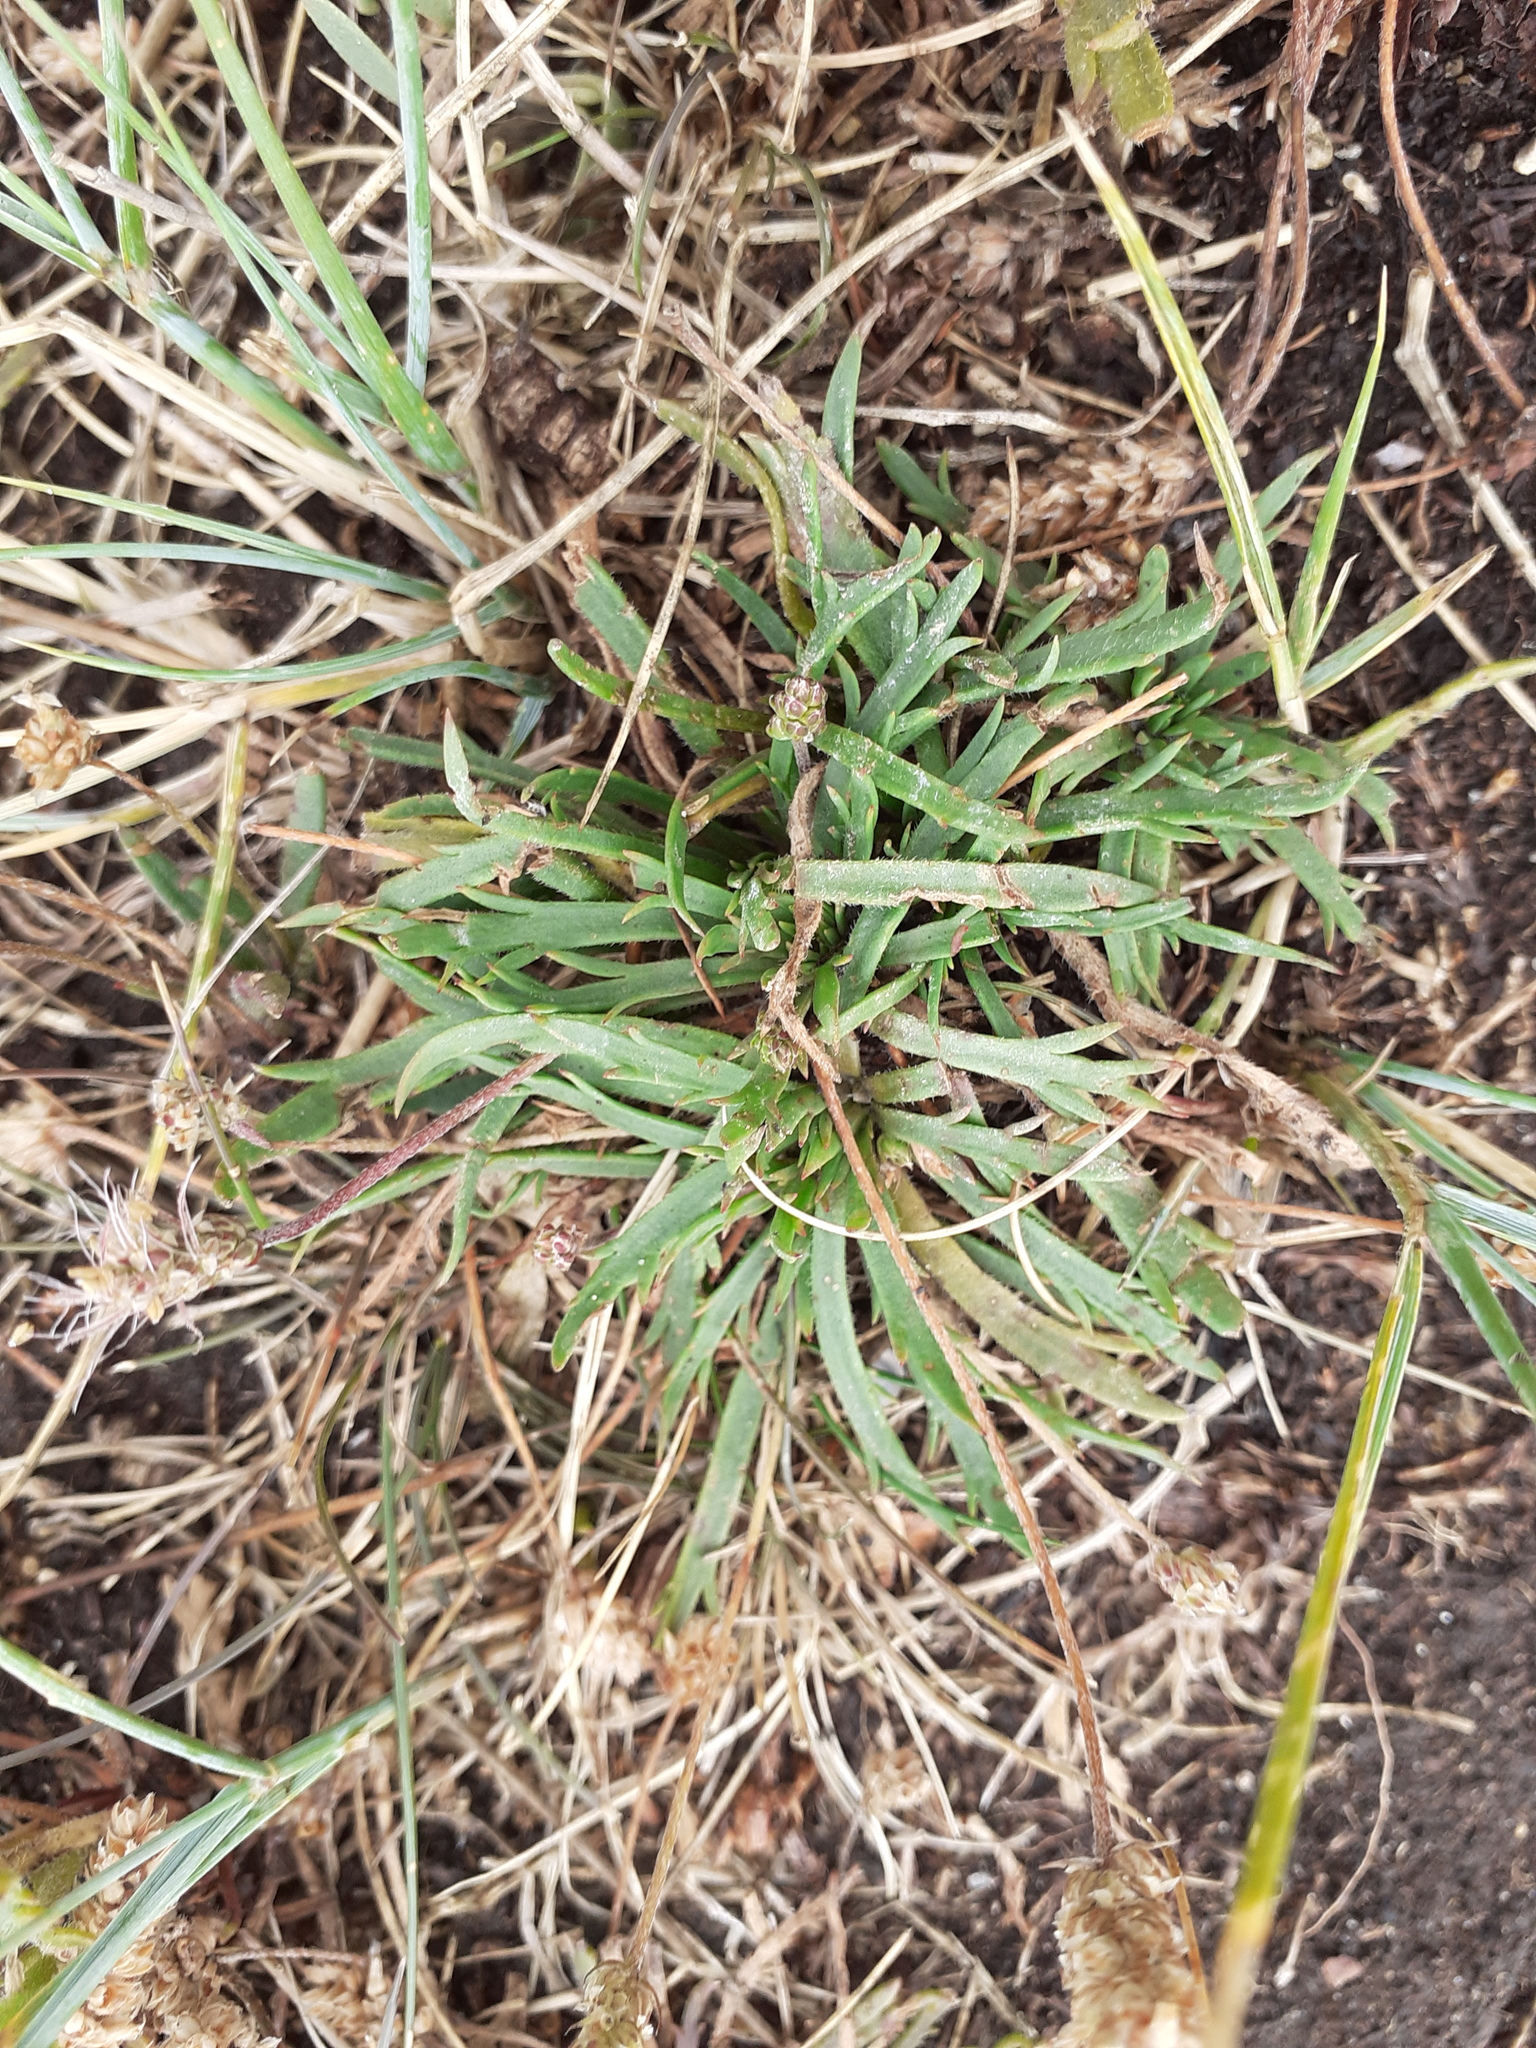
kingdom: Plantae
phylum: Tracheophyta
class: Magnoliopsida
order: Lamiales
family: Plantaginaceae
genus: Plantago
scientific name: Plantago coronopus
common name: Buck's-horn plantain
